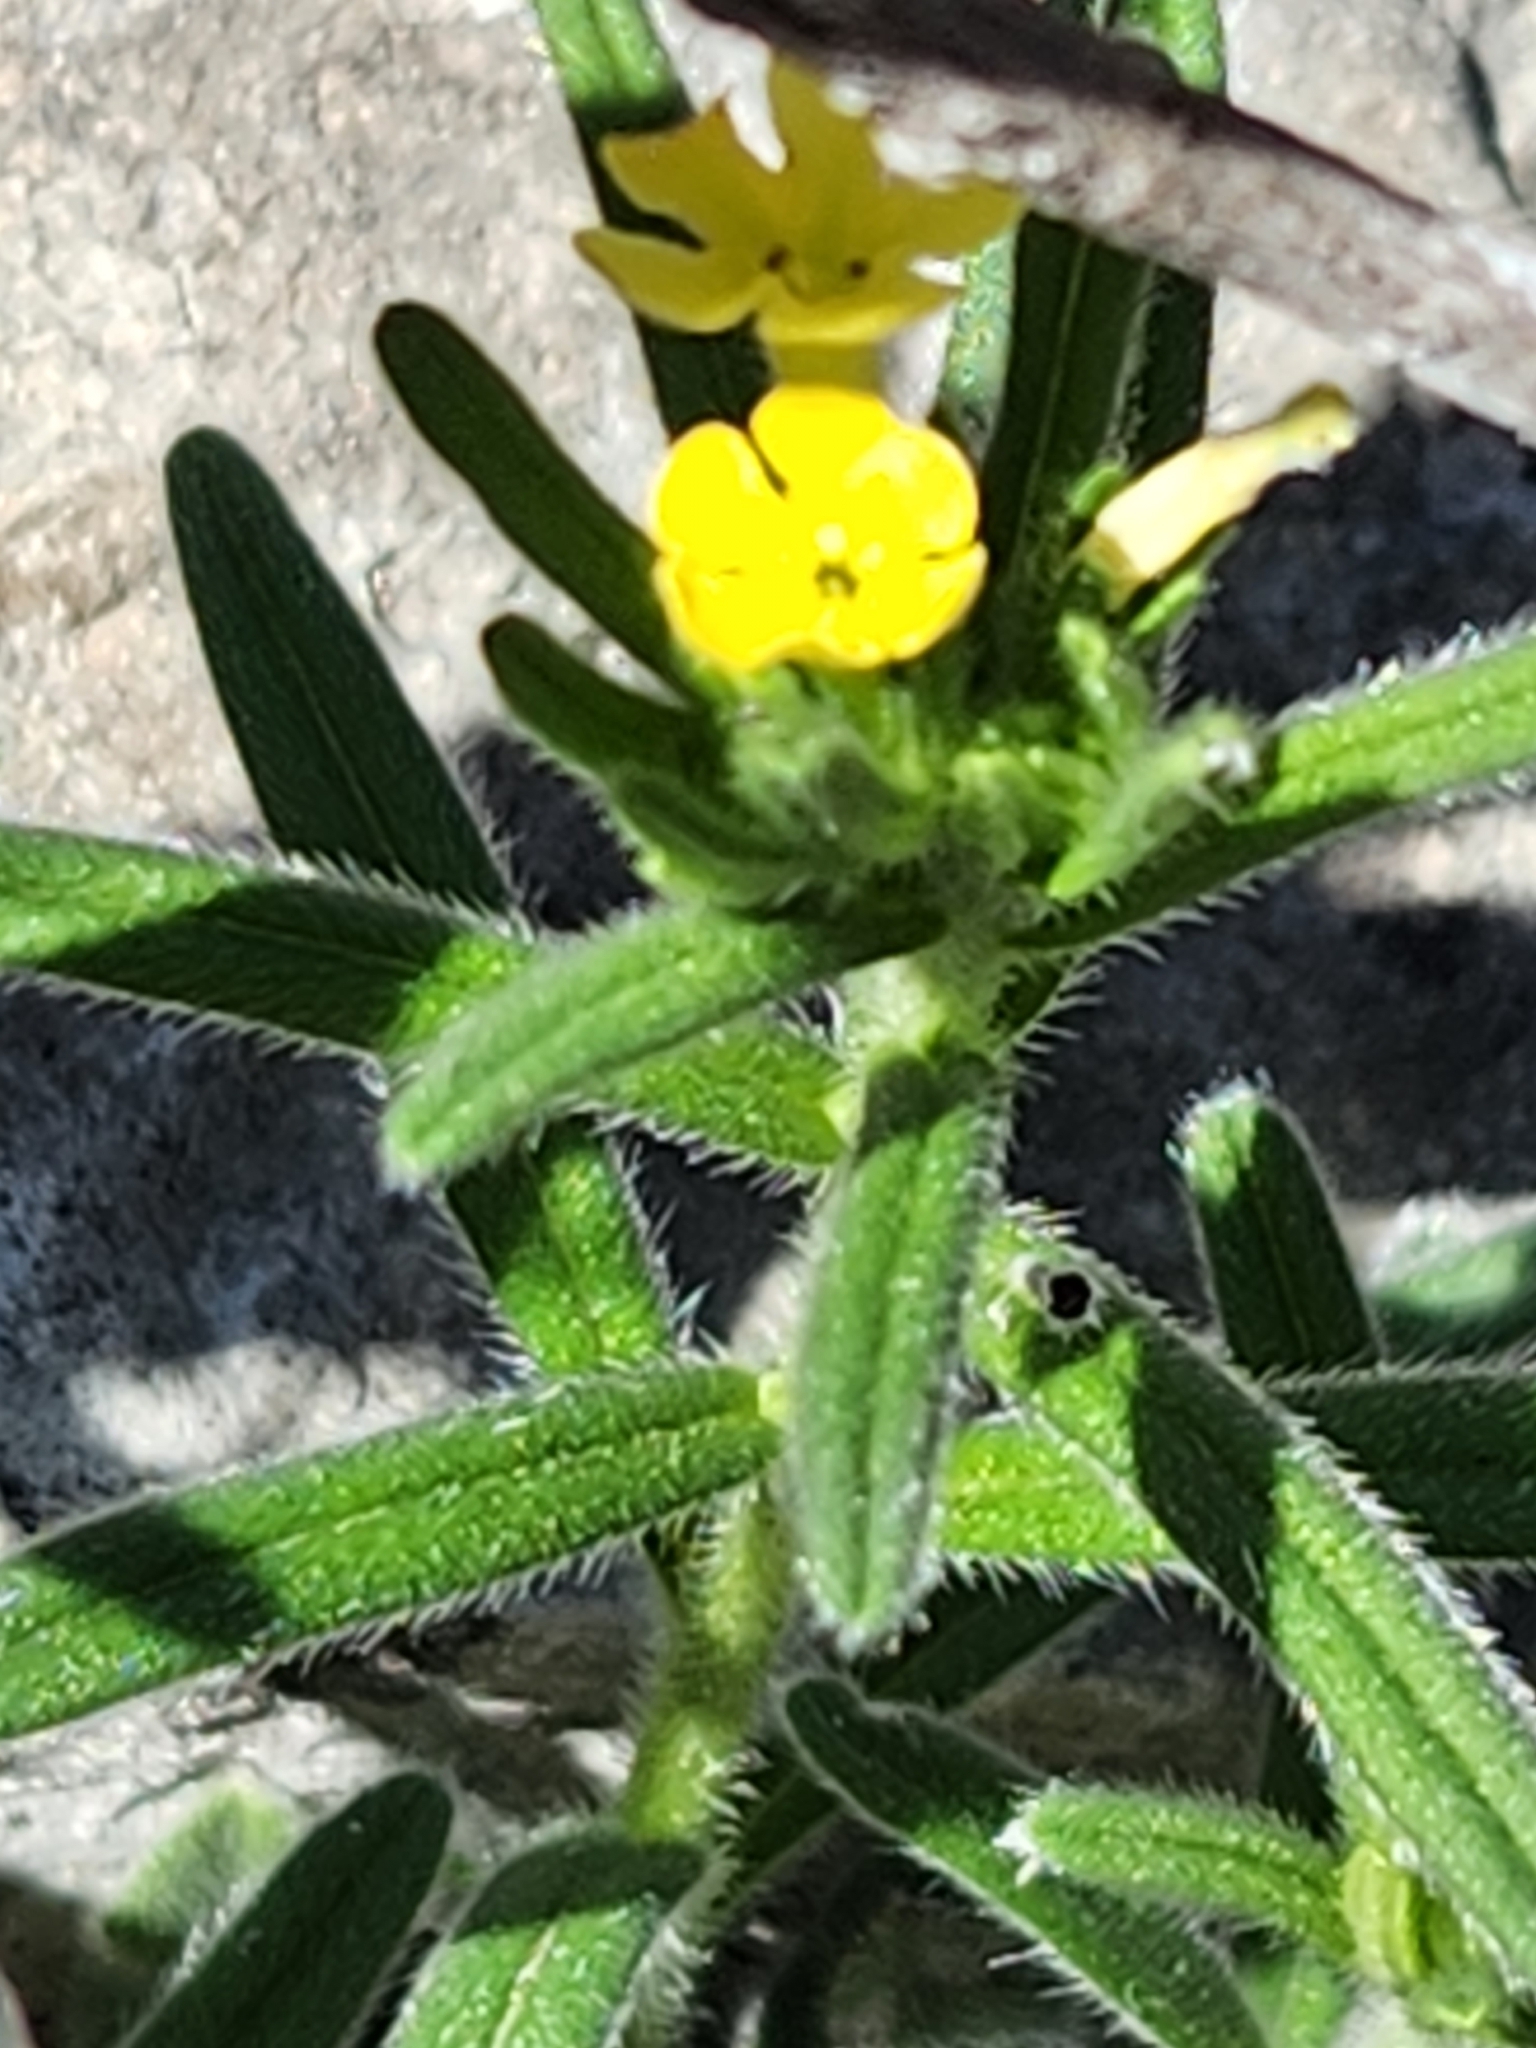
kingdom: Plantae
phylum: Tracheophyta
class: Magnoliopsida
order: Boraginales
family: Boraginaceae
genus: Lithospermum
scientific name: Lithospermum mirabile
